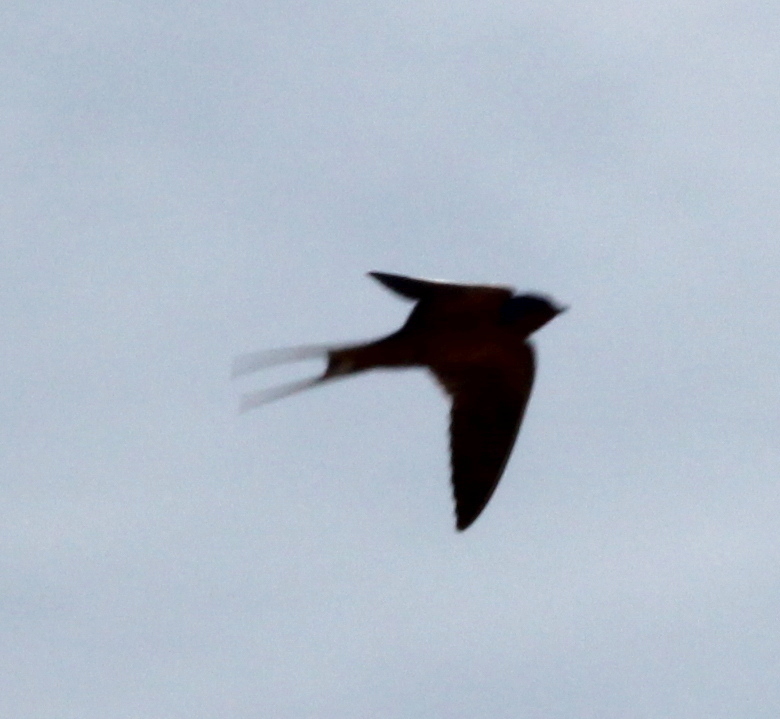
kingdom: Animalia
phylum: Chordata
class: Aves
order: Passeriformes
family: Hirundinidae
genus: Hirundo
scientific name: Hirundo rustica
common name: Barn swallow
